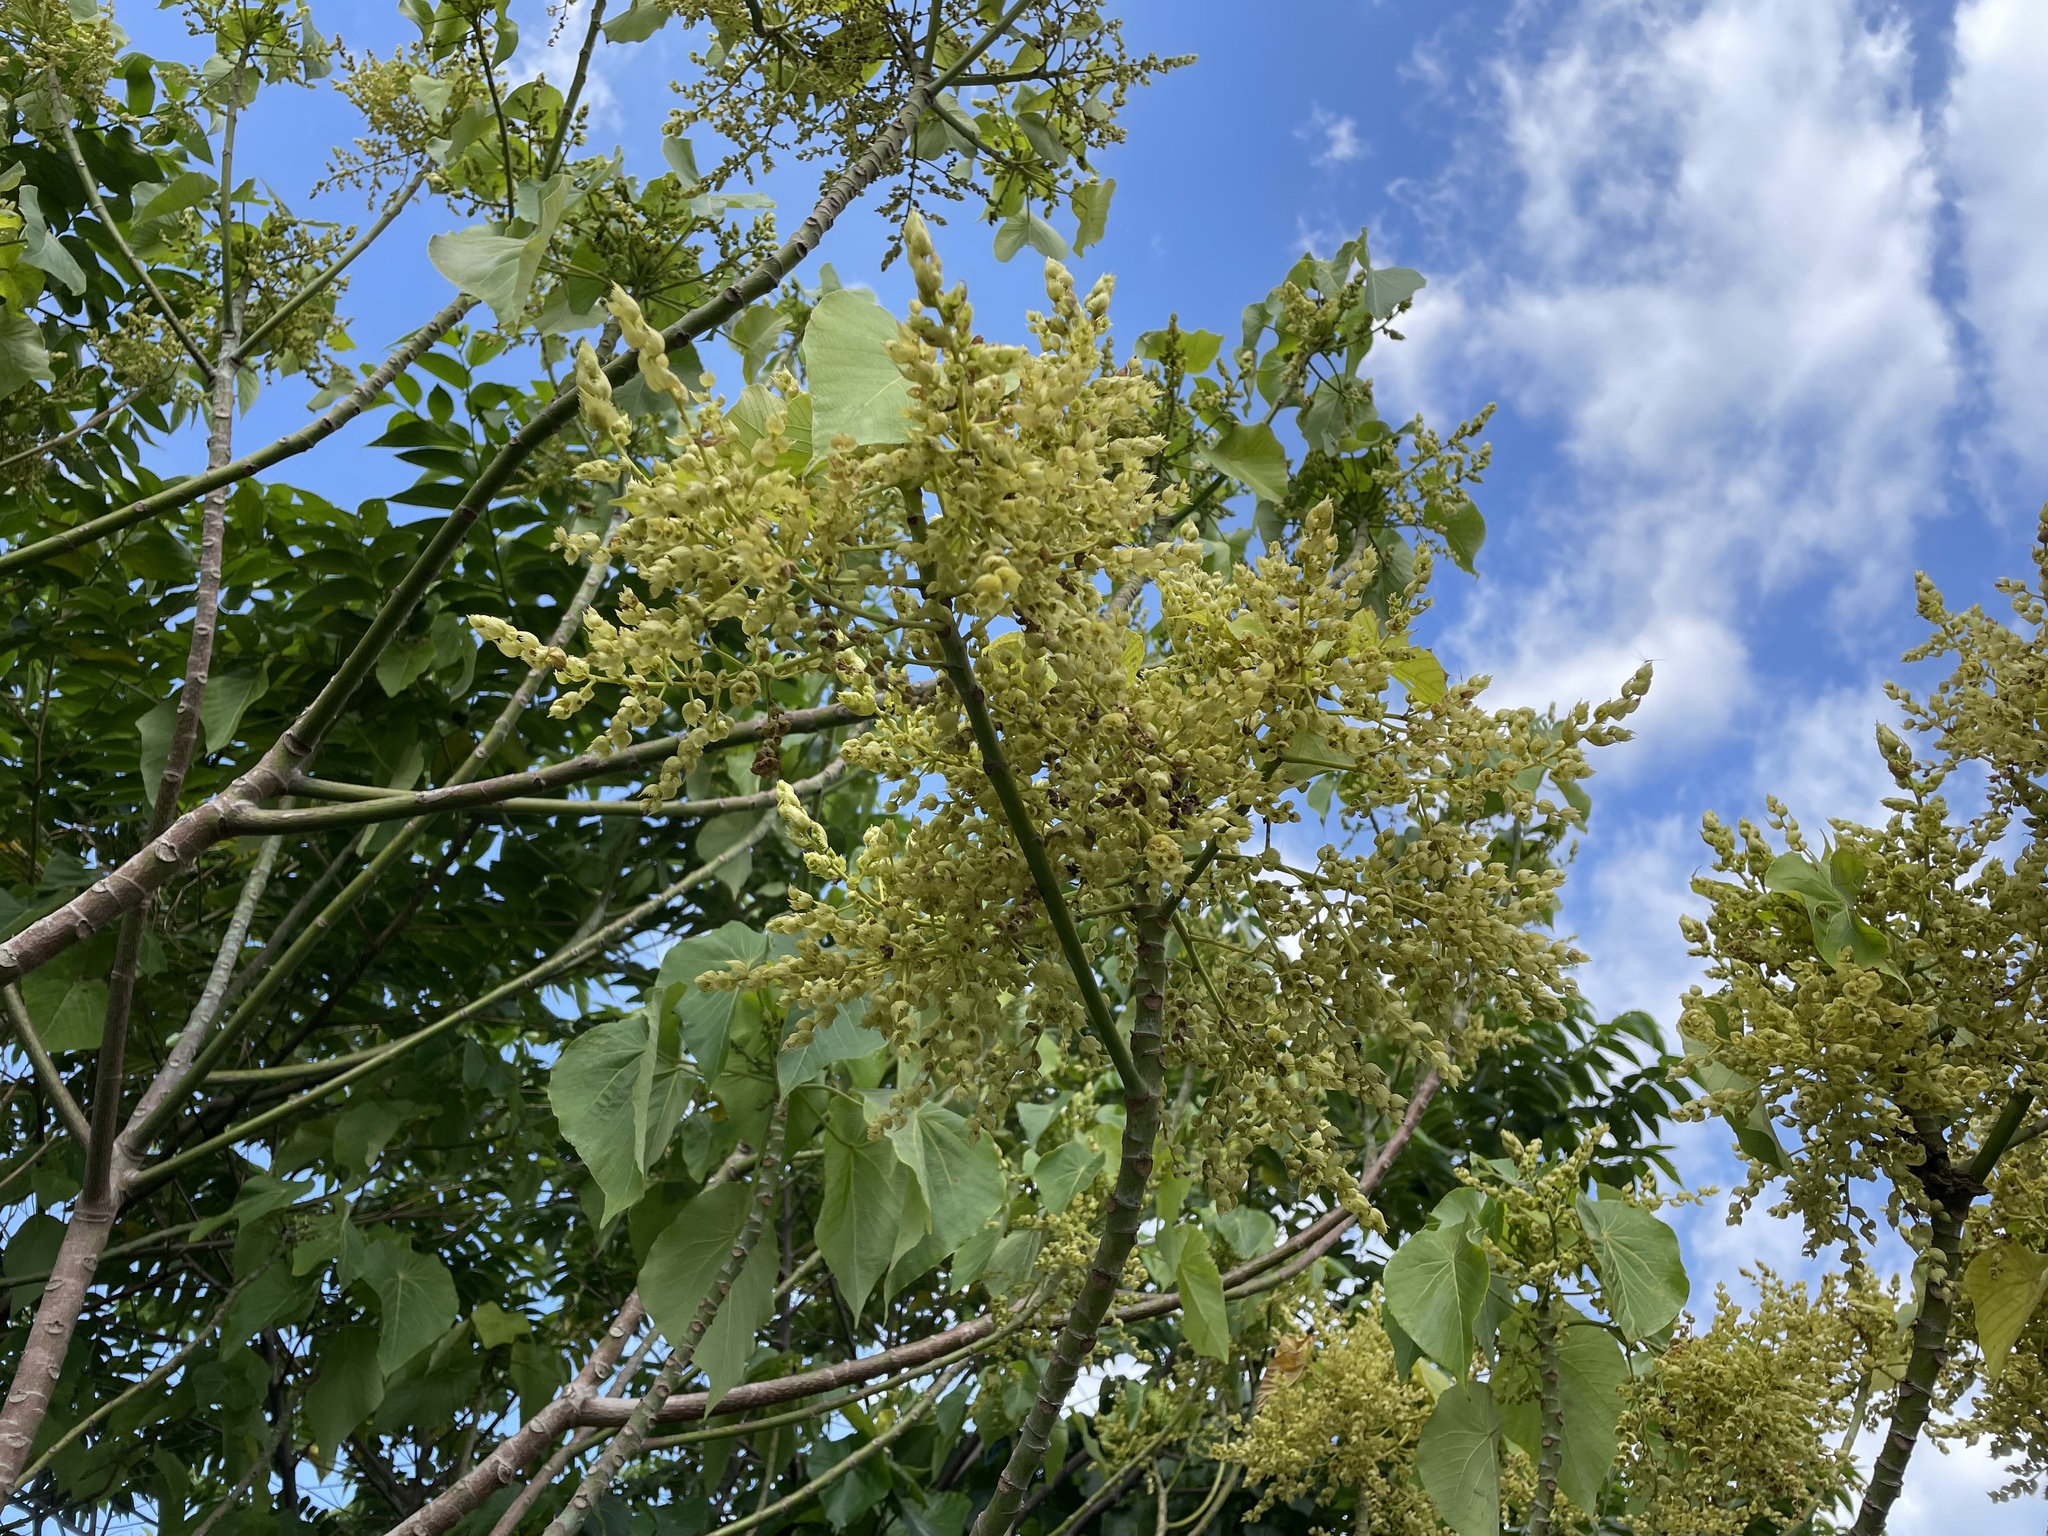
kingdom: Plantae
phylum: Tracheophyta
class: Magnoliopsida
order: Malpighiales
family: Euphorbiaceae
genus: Macaranga
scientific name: Macaranga tanarius
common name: Parasol leaf tree
